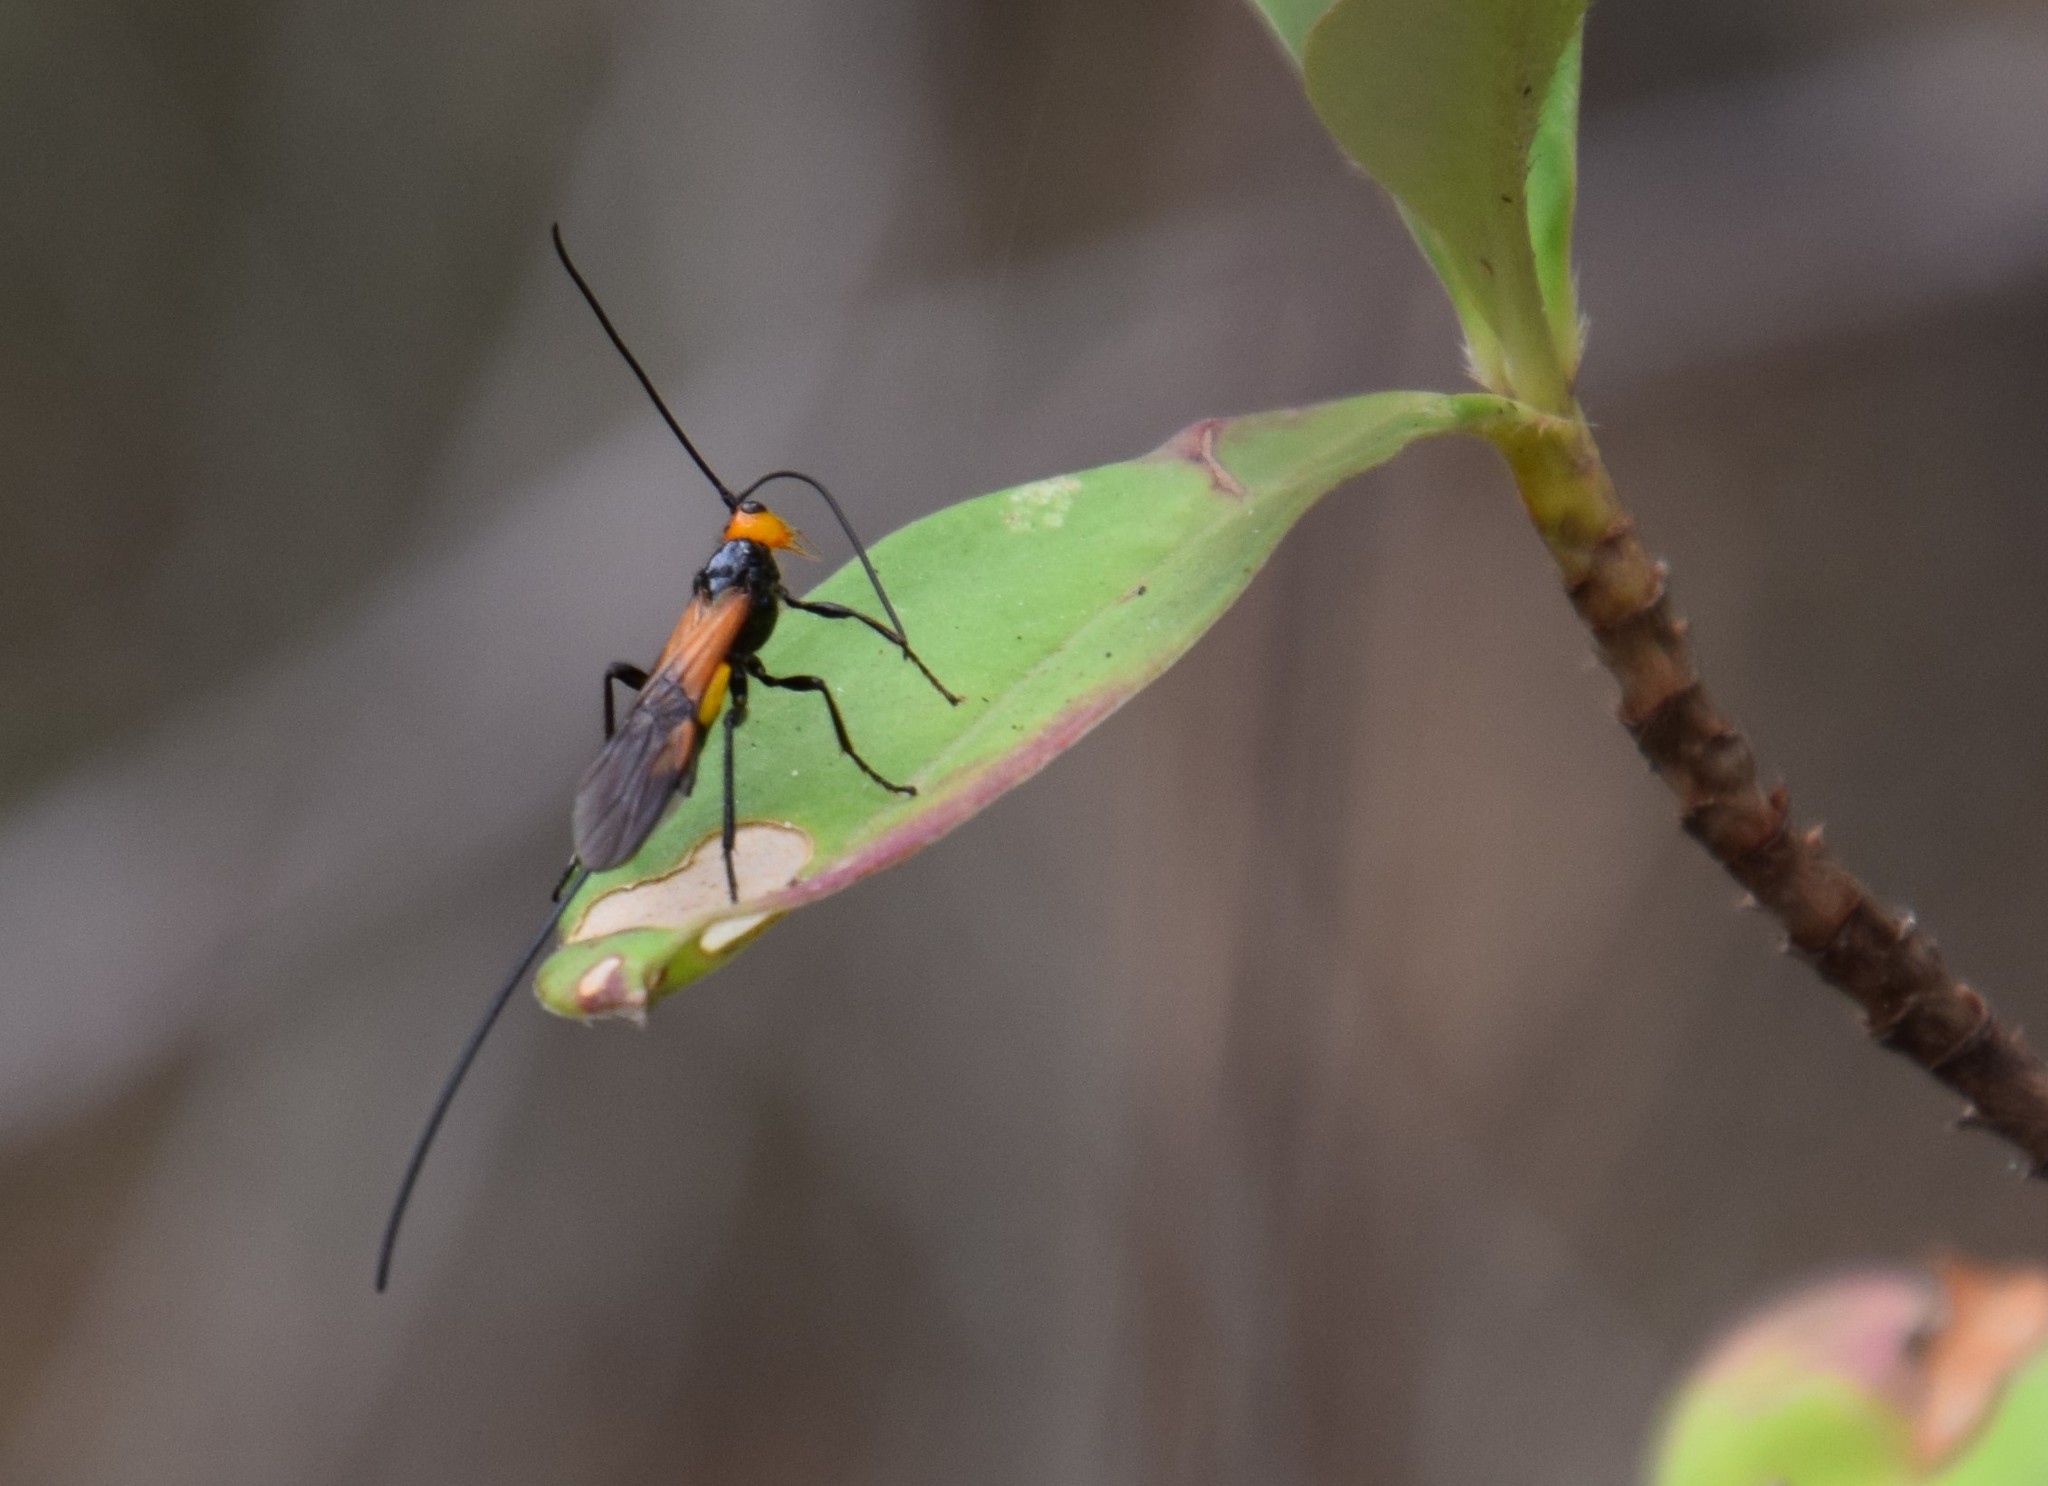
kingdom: Animalia
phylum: Arthropoda
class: Insecta
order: Hymenoptera
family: Braconidae
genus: Chaoilta
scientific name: Chaoilta hollowayi
